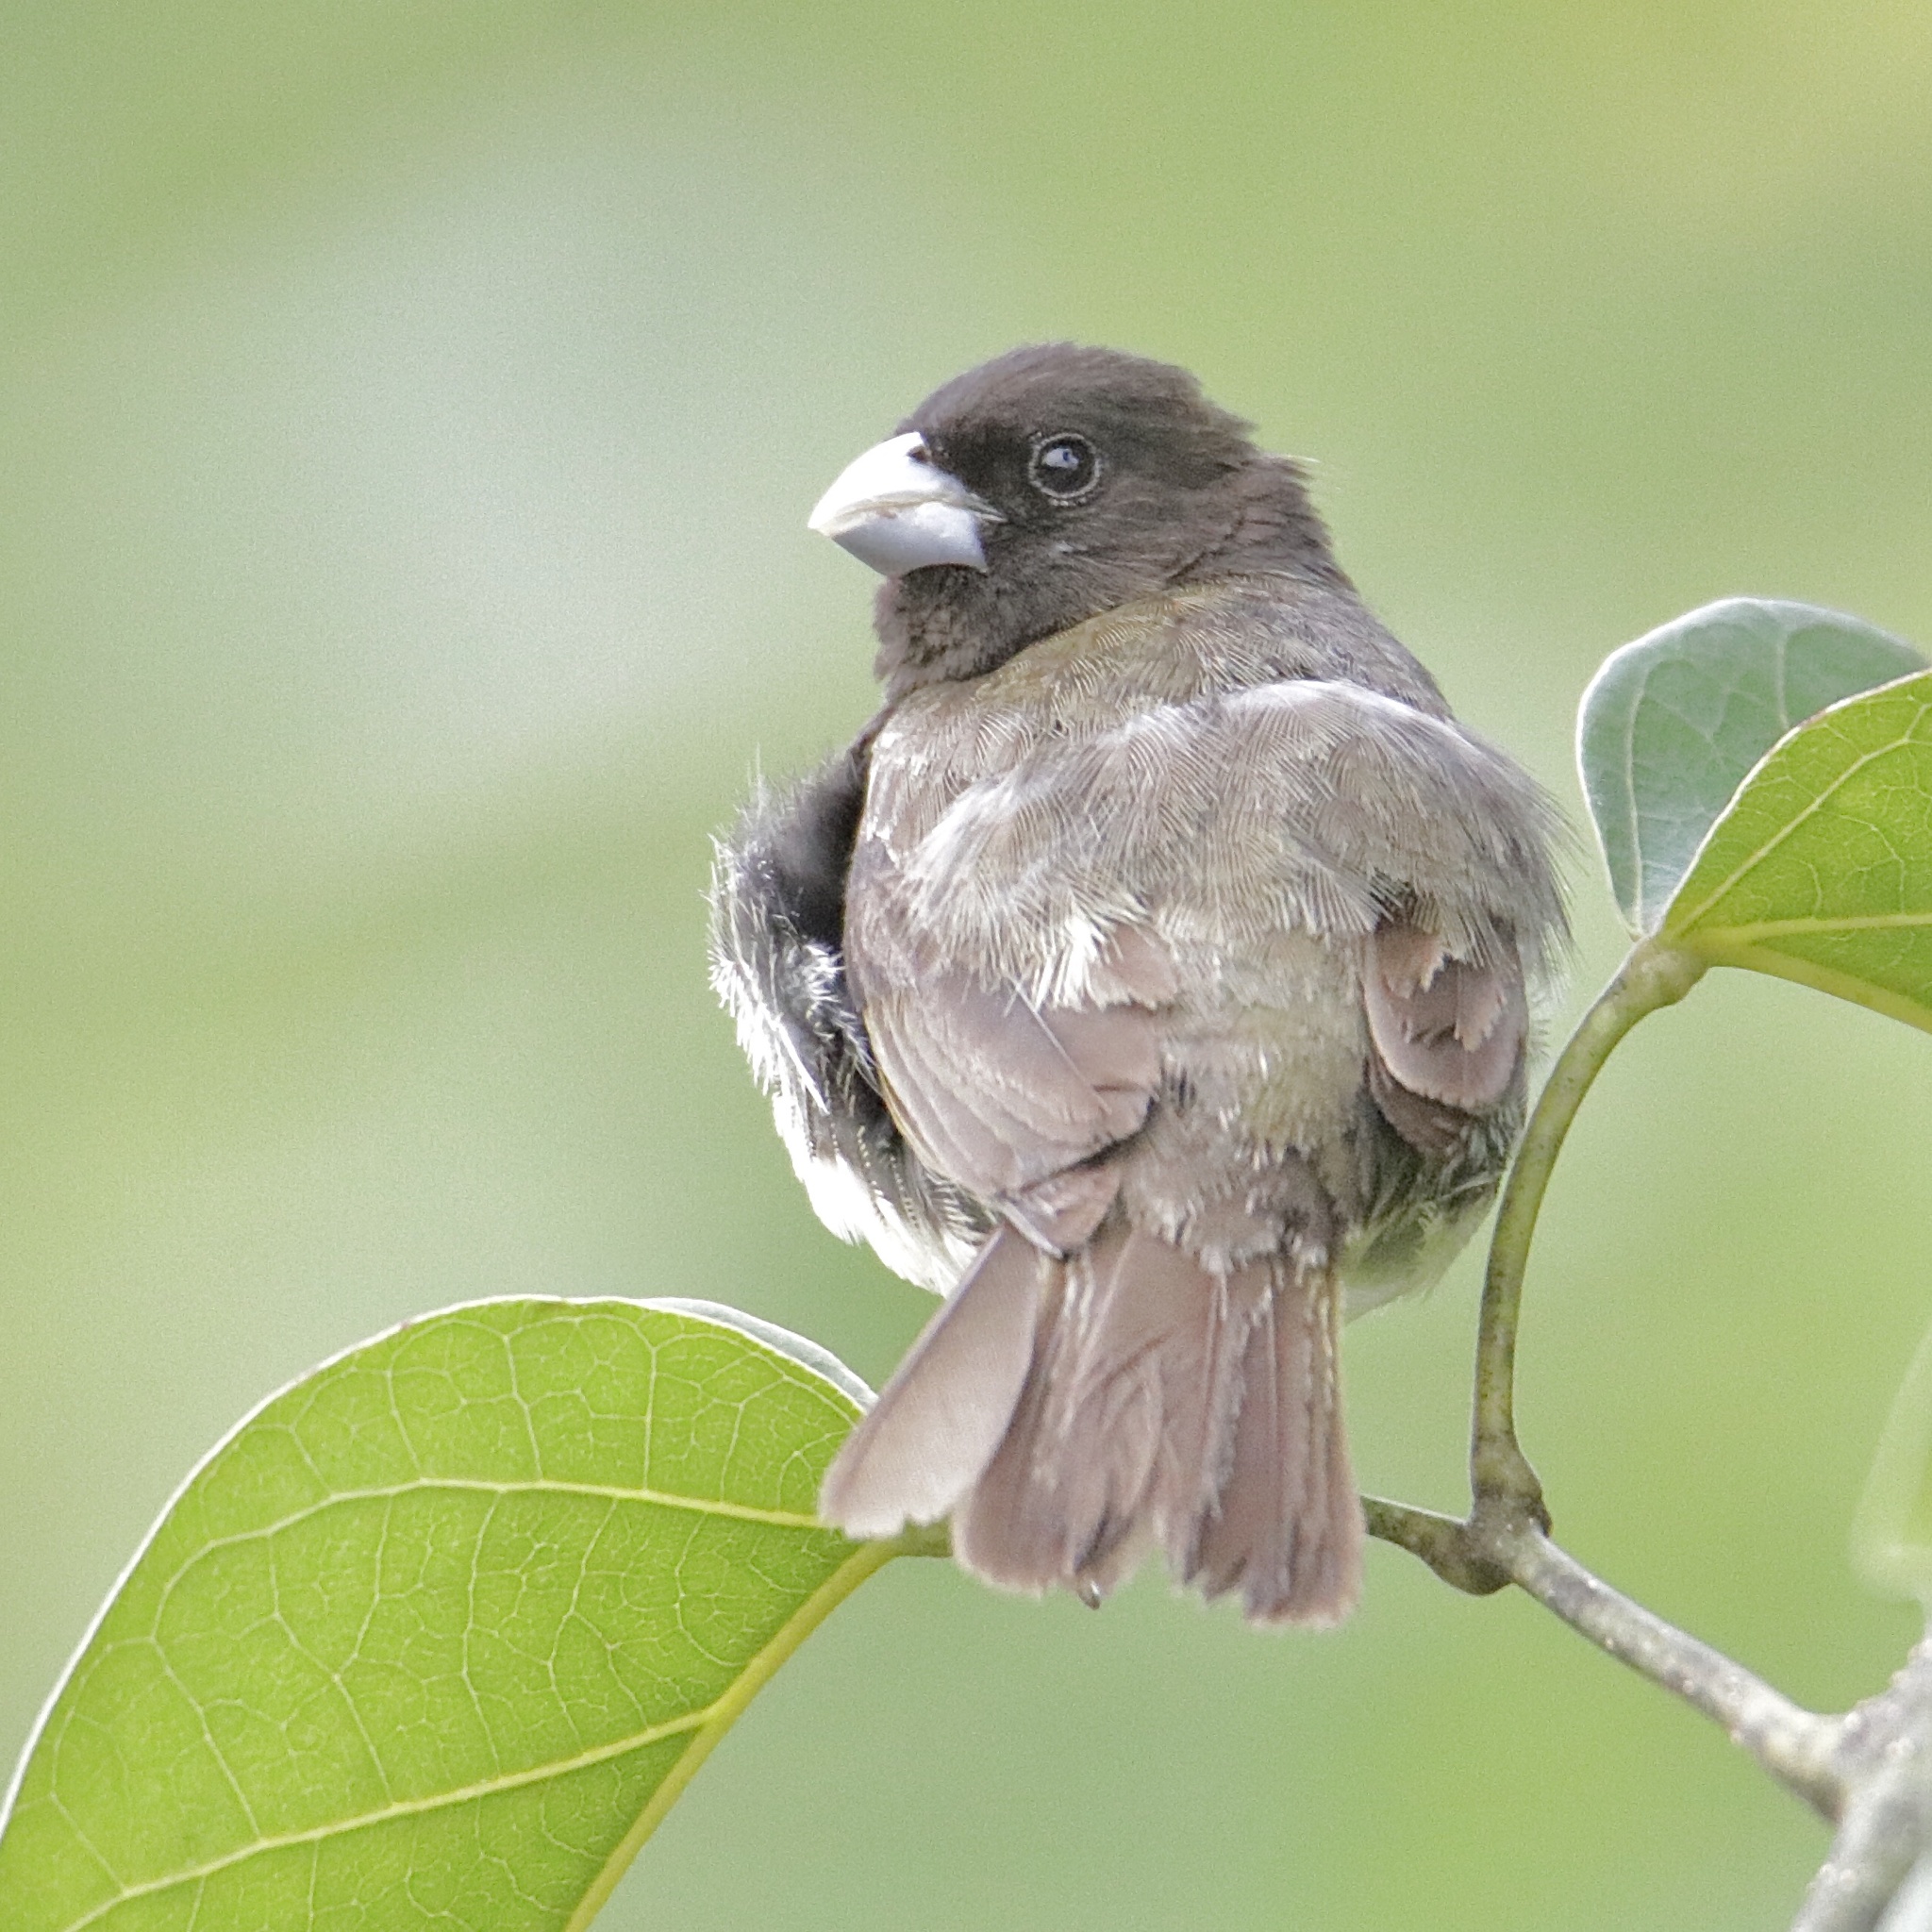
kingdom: Animalia
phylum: Chordata
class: Aves
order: Passeriformes
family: Thraupidae
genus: Sporophila
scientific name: Sporophila nigricollis
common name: Yellow-bellied seedeater
